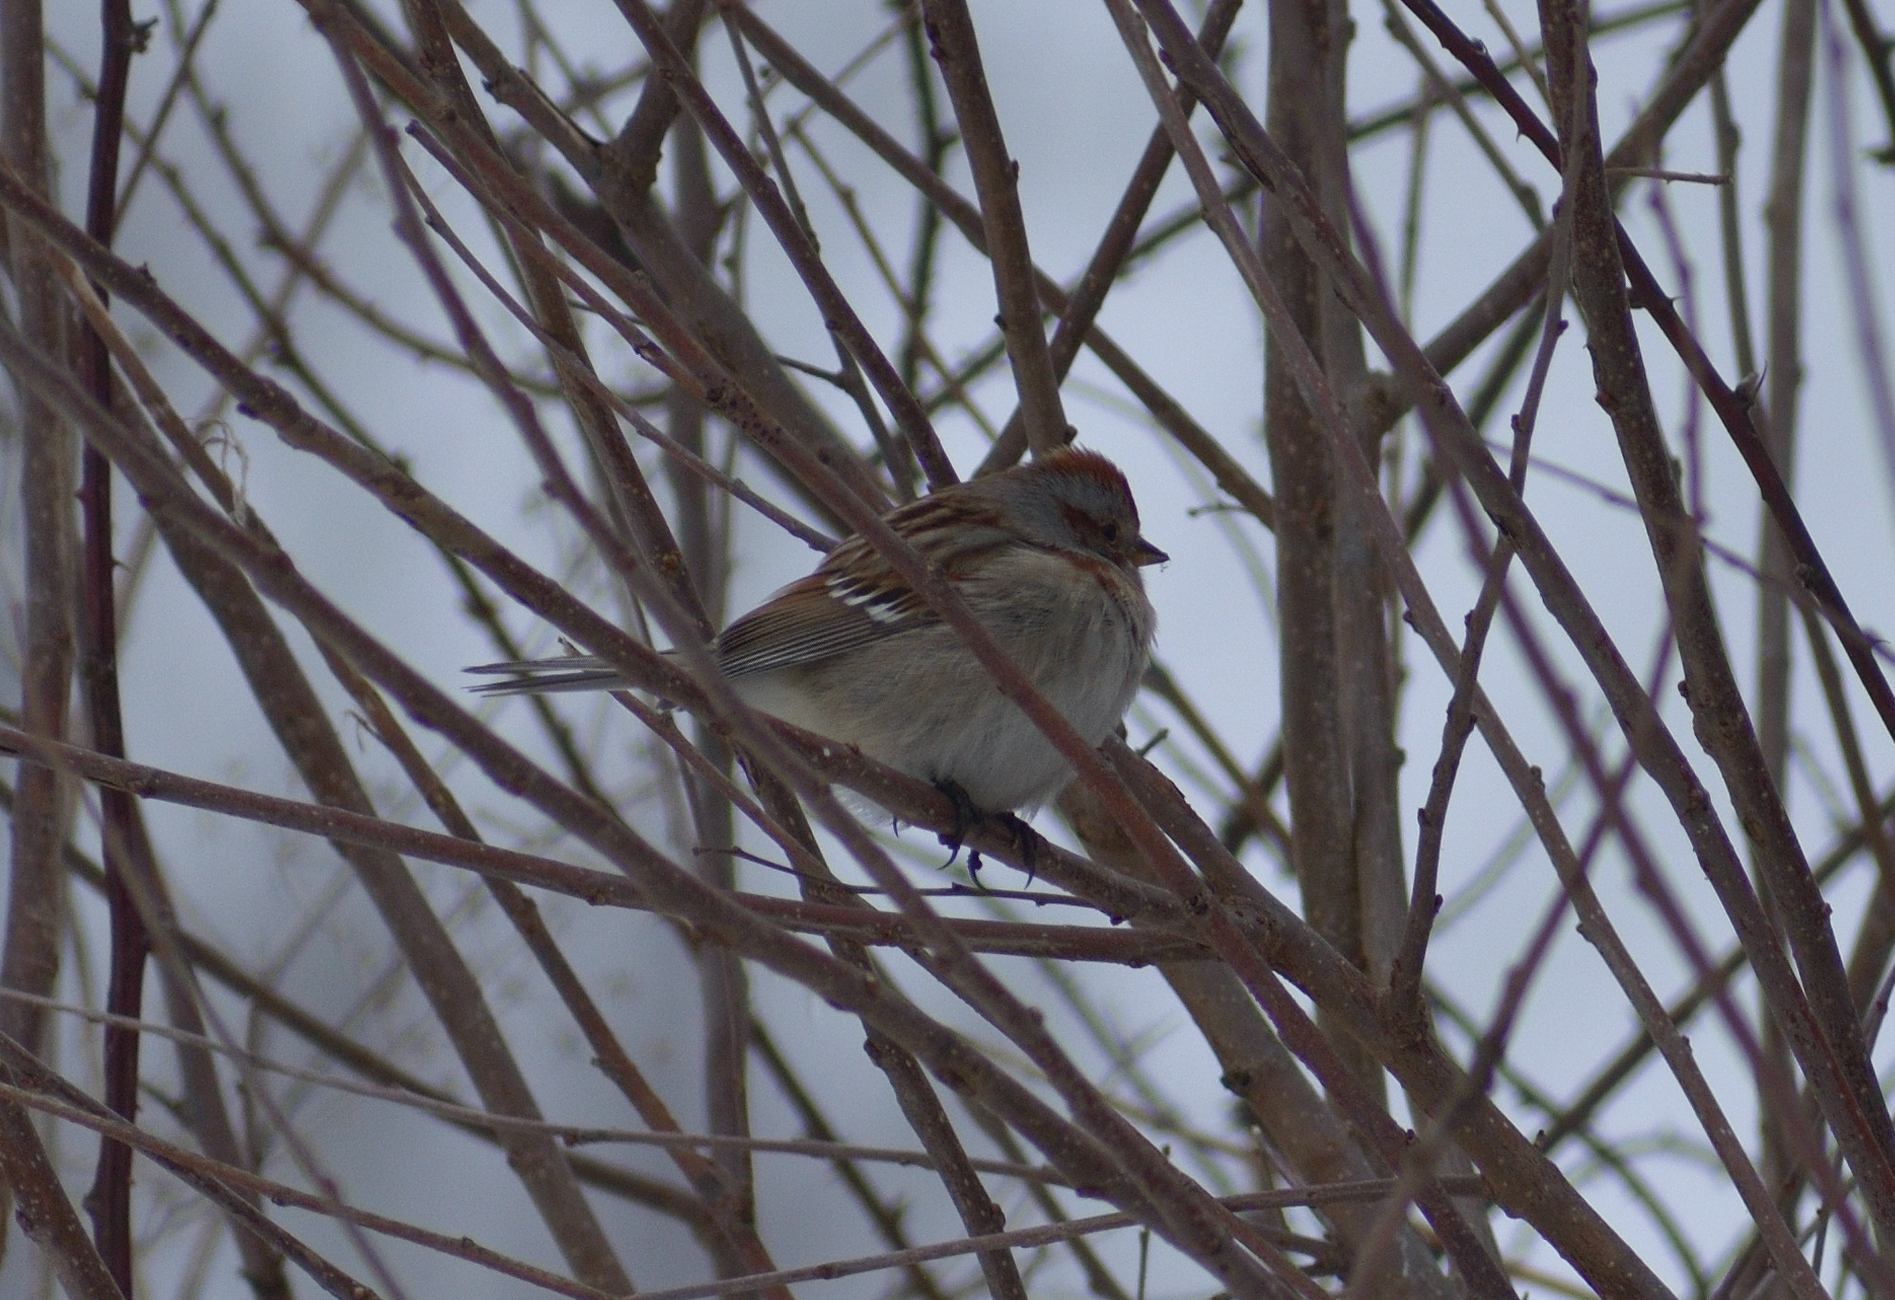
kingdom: Animalia
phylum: Chordata
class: Aves
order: Passeriformes
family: Passerellidae
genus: Spizelloides
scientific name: Spizelloides arborea
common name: American tree sparrow
